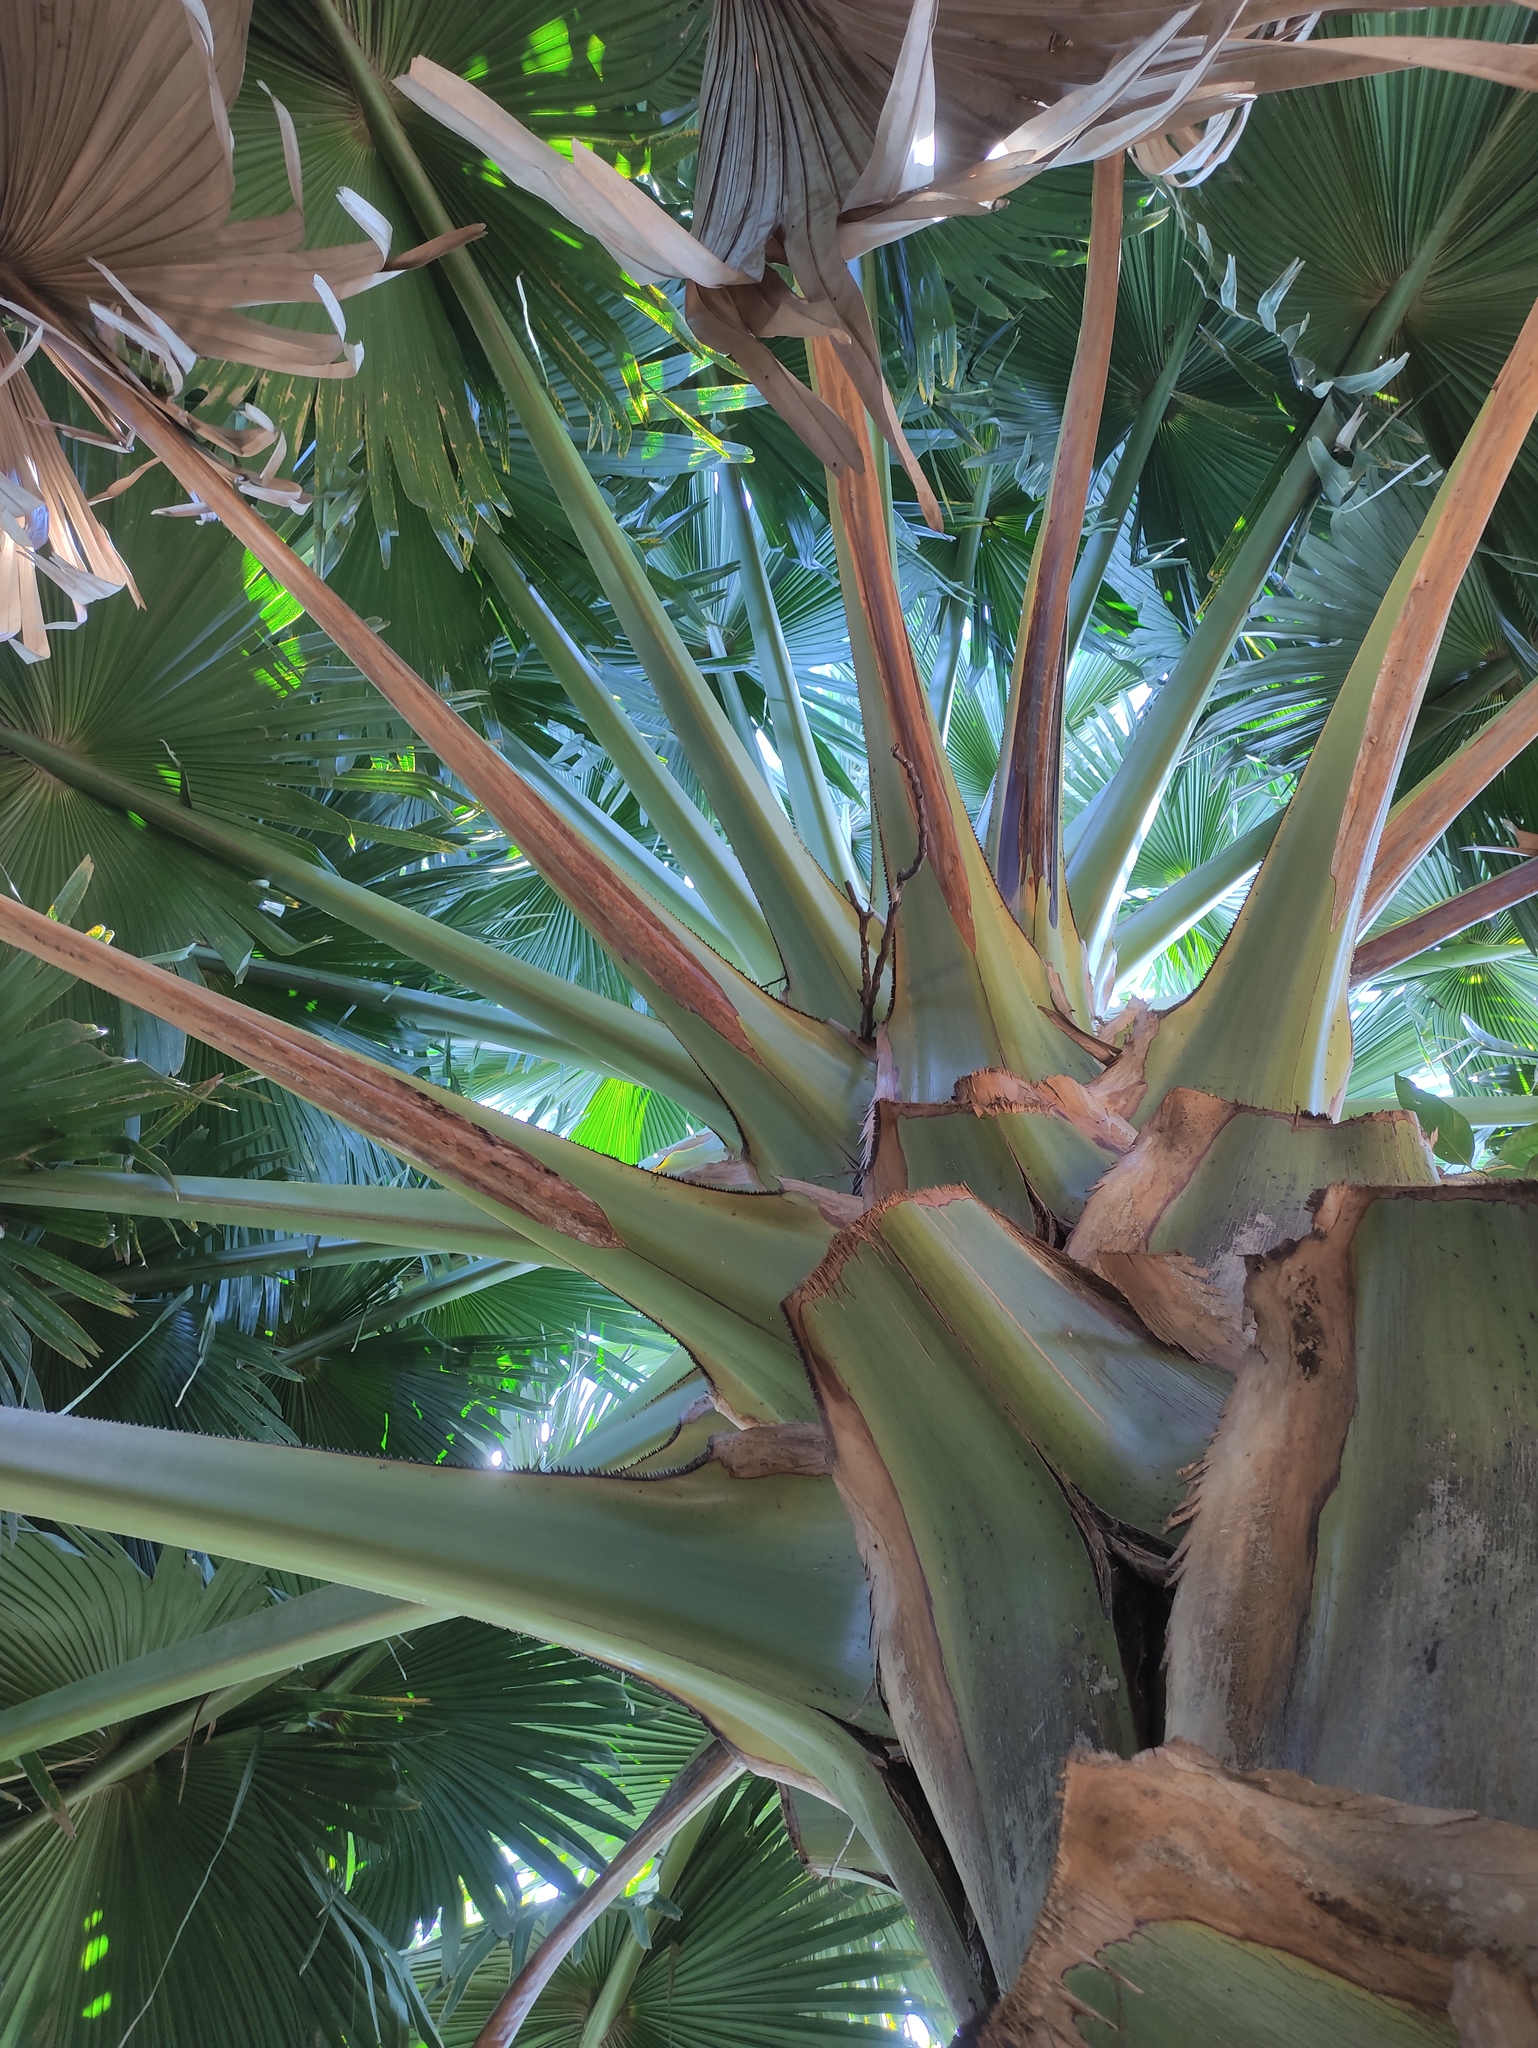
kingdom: Plantae
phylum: Tracheophyta
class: Liliopsida
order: Arecales
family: Arecaceae
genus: Bismarckia
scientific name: Bismarckia nobilis
